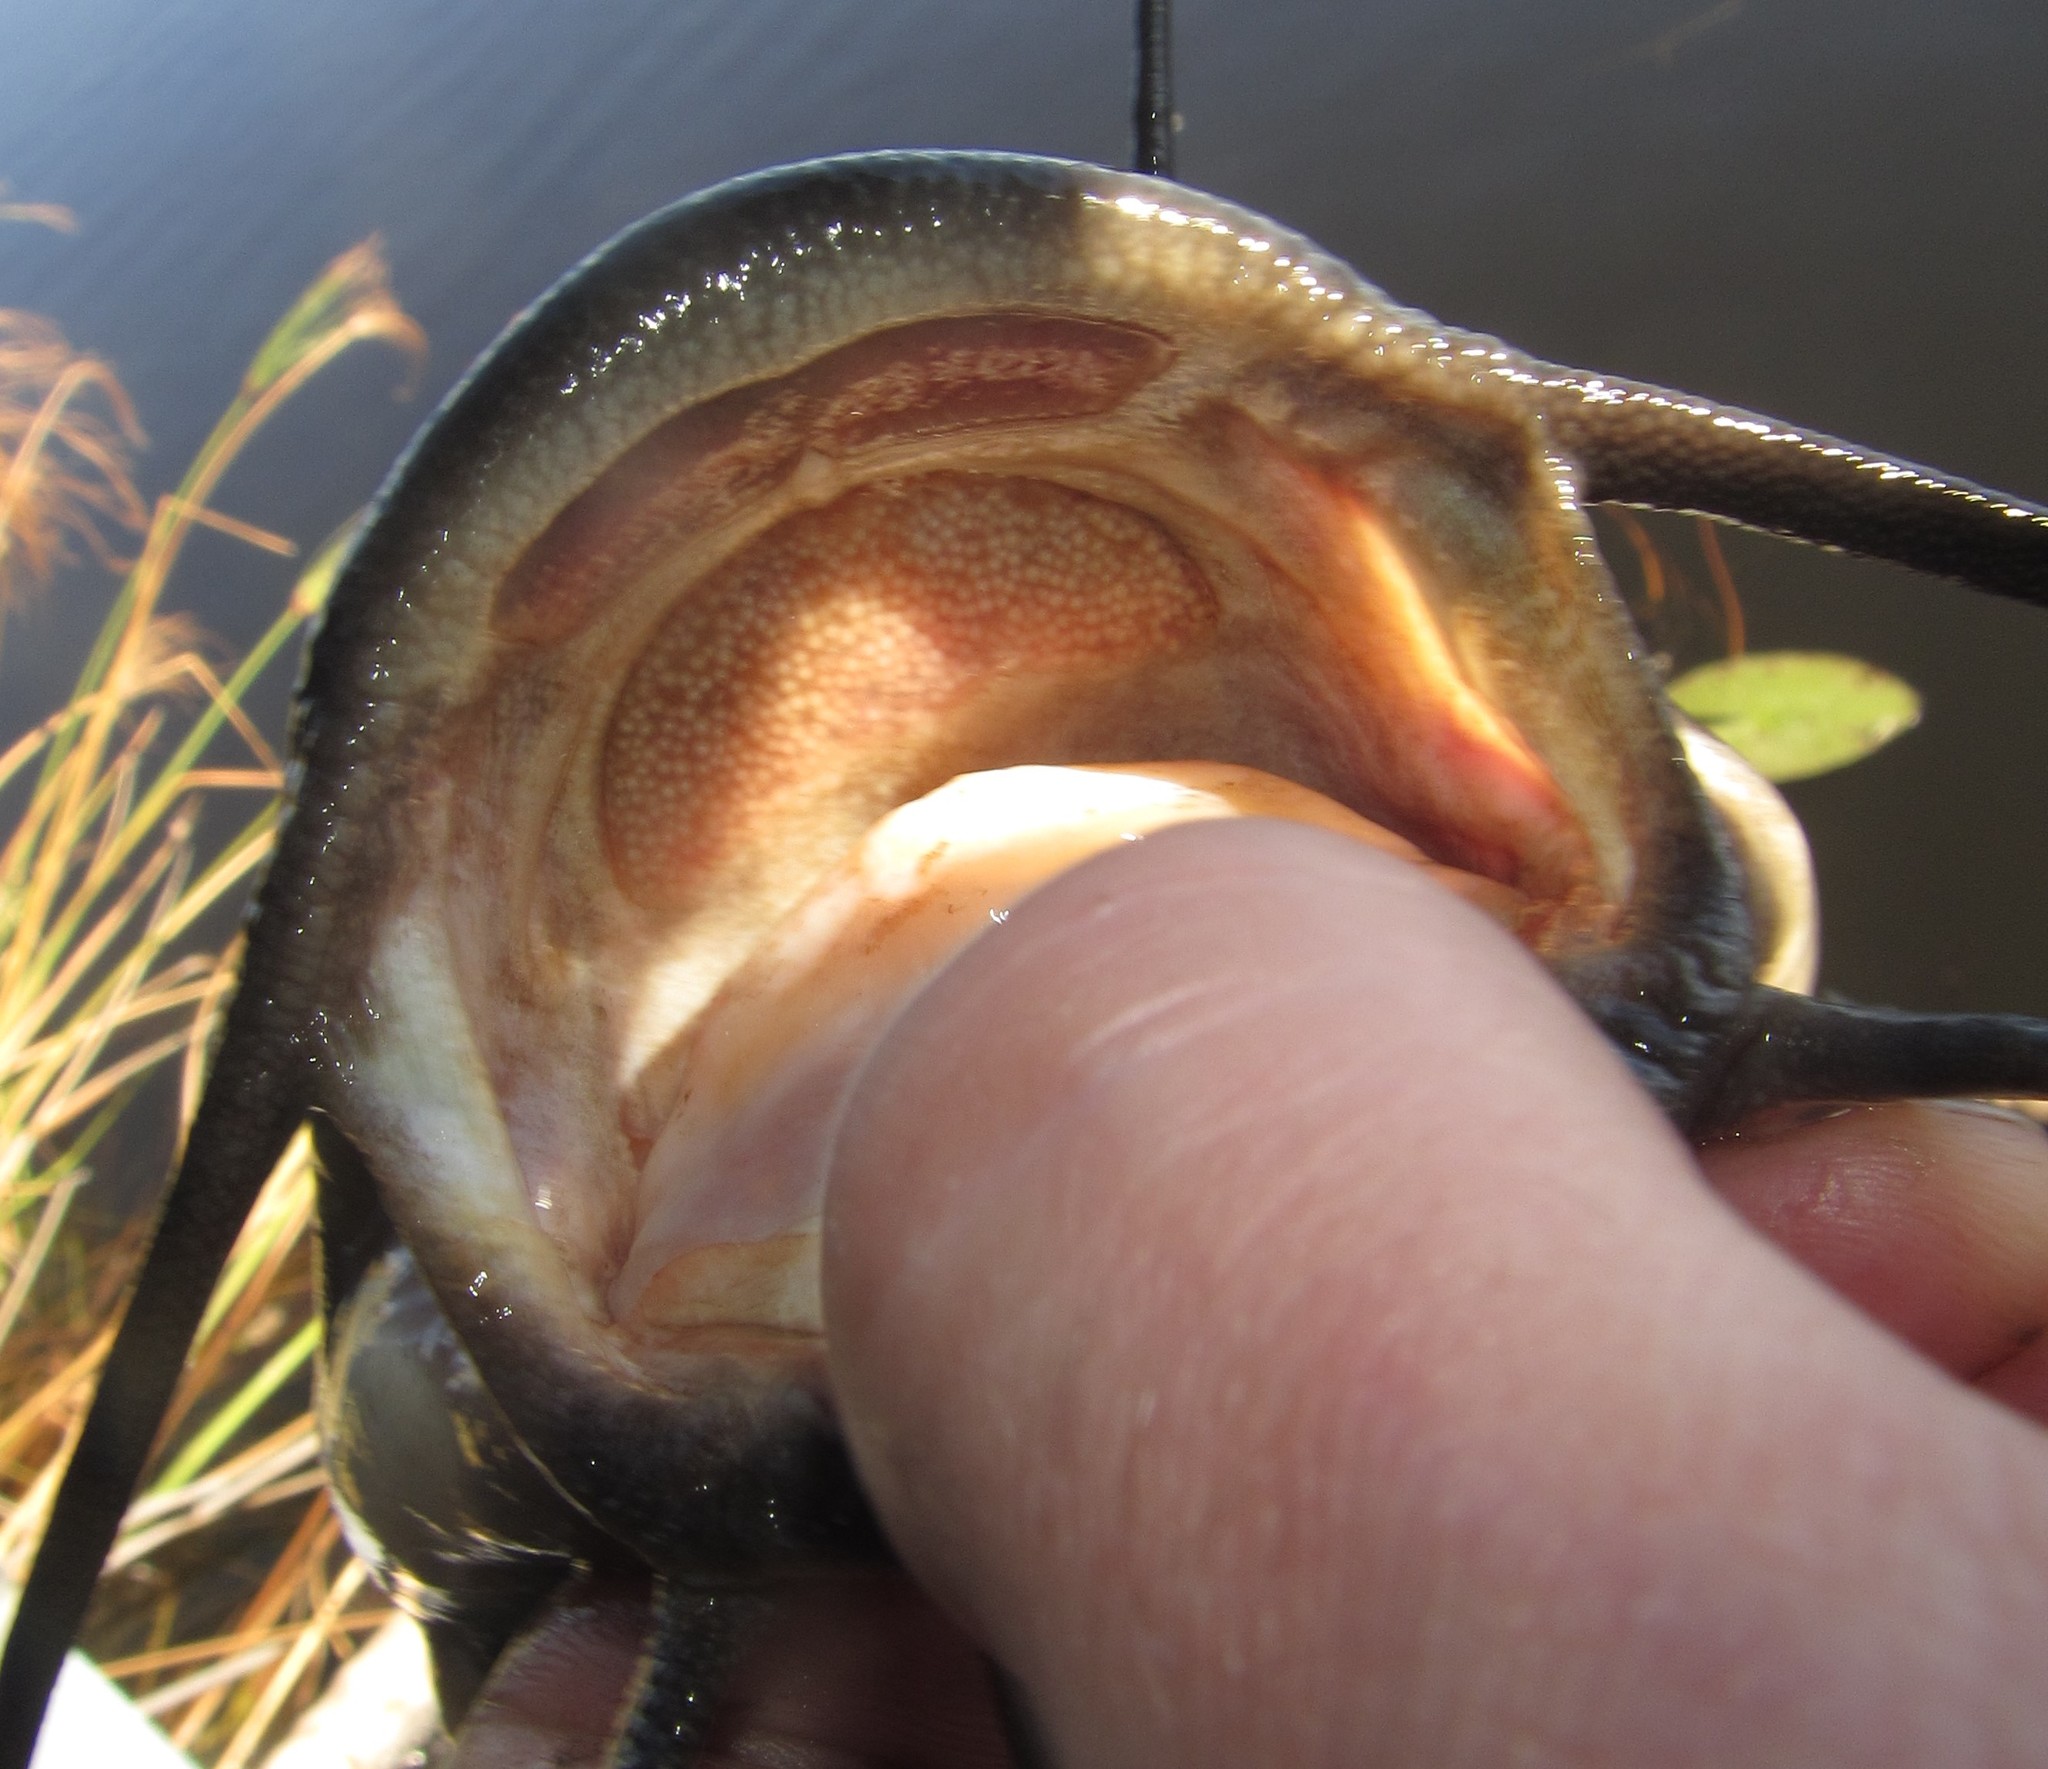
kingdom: Animalia
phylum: Chordata
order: Siluriformes
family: Clariidae
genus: Clarias
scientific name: Clarias ngamensis
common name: Blunt-toothed african catfish
